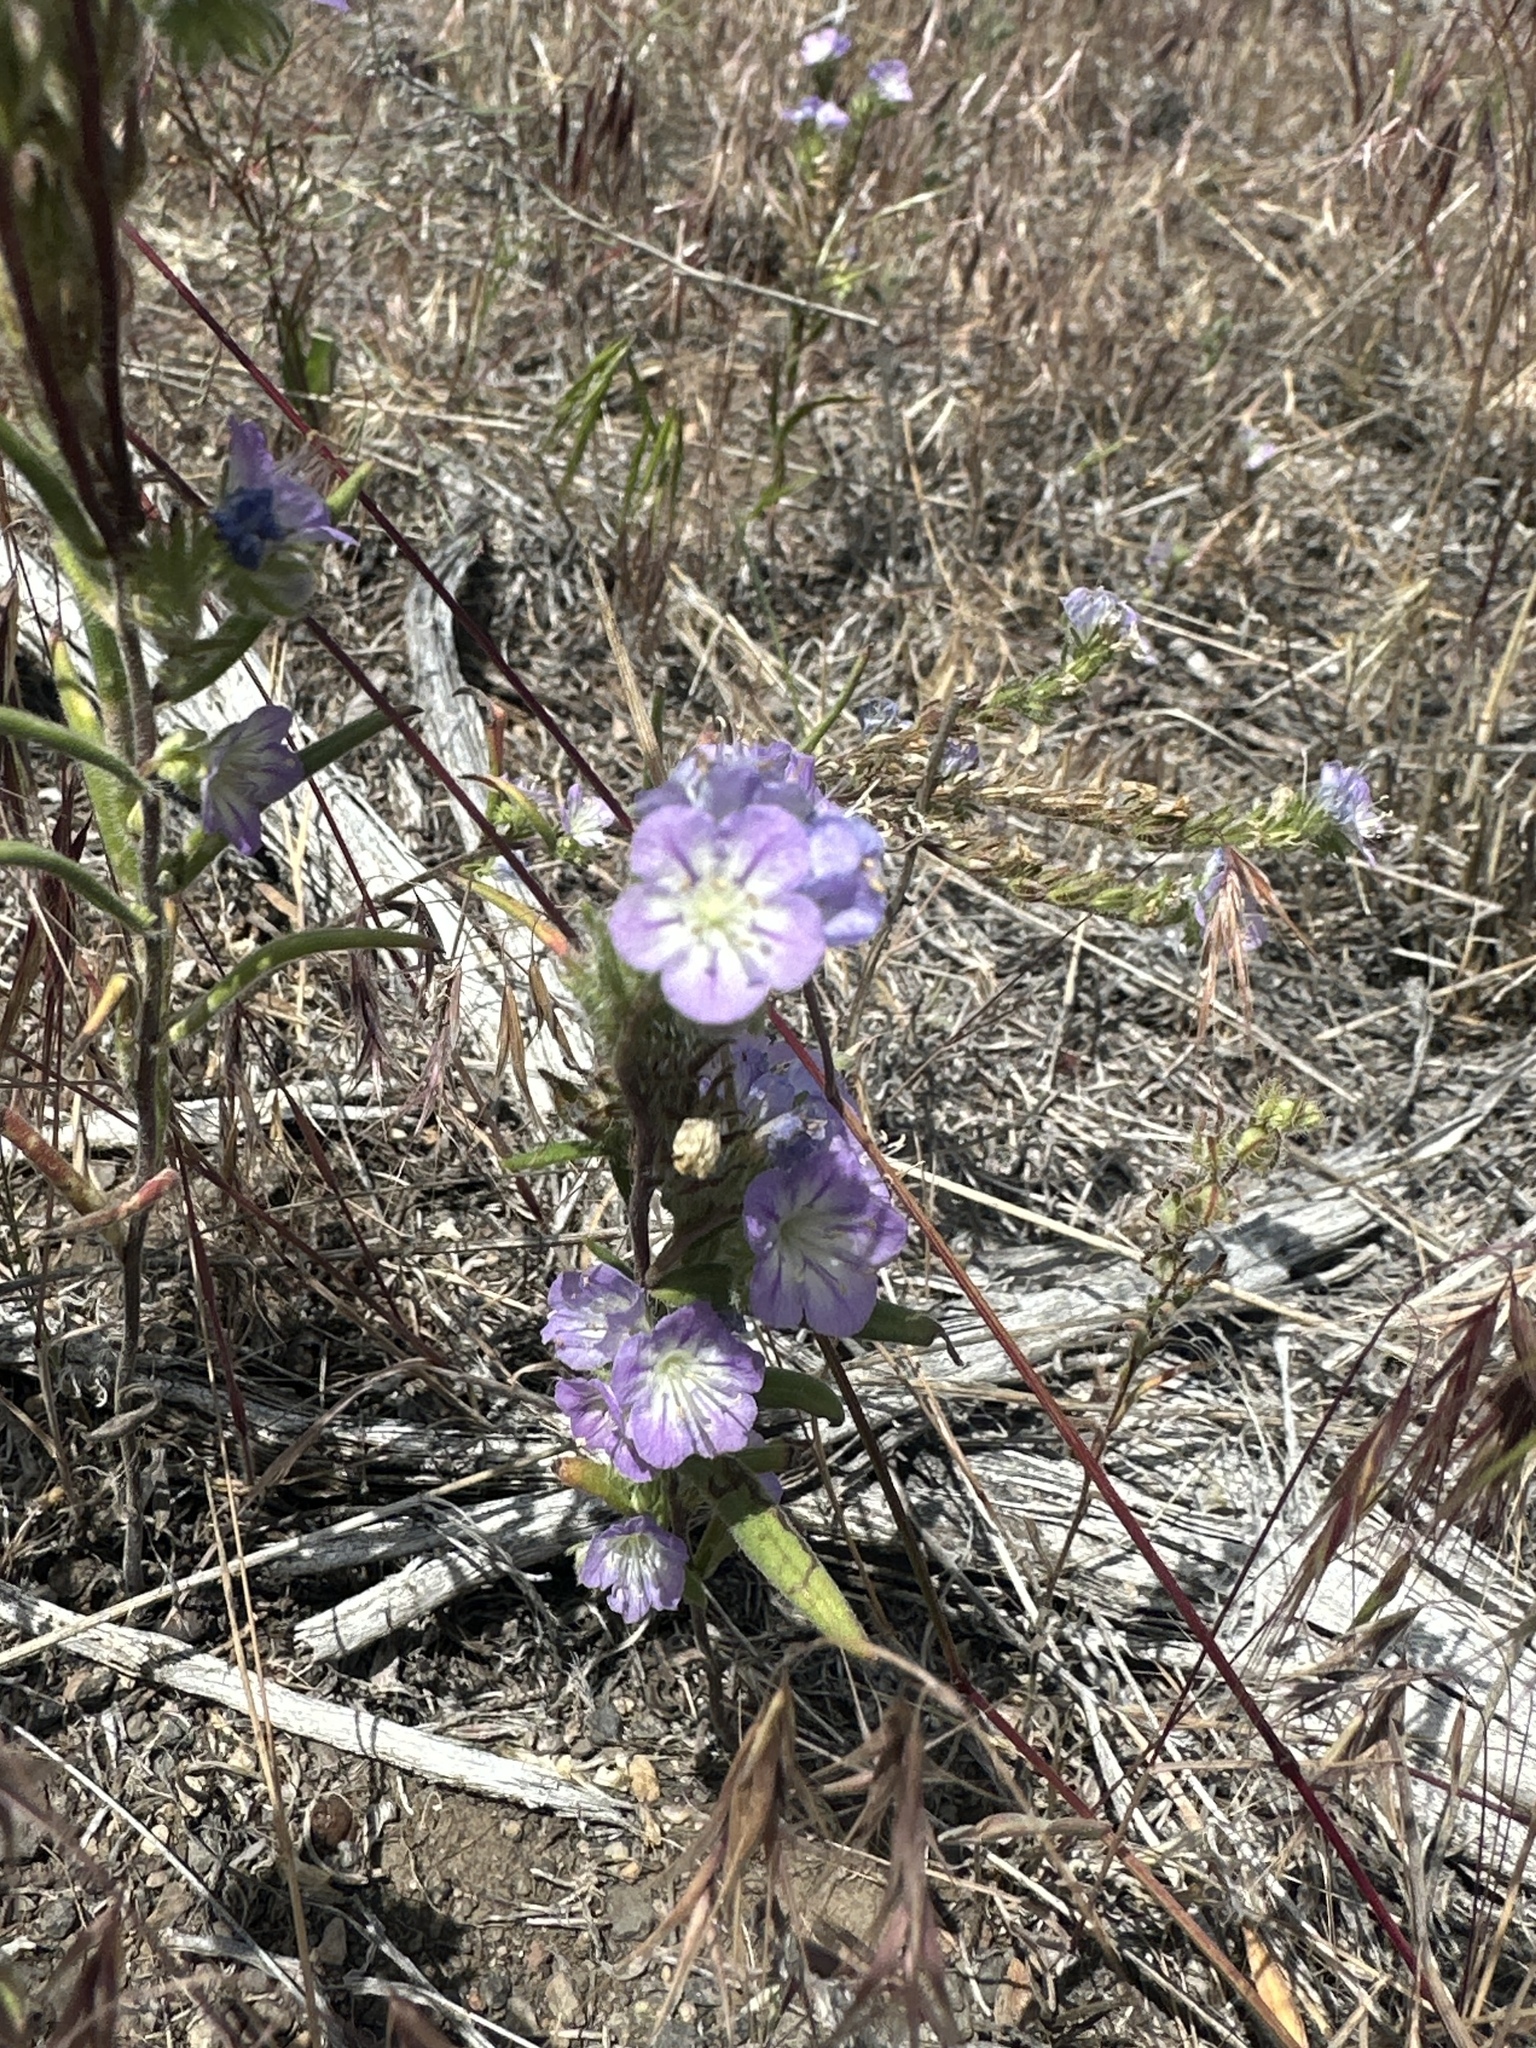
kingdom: Plantae
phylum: Tracheophyta
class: Magnoliopsida
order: Boraginales
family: Hydrophyllaceae
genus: Phacelia
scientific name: Phacelia linearis
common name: Linear-leaved phacelia
